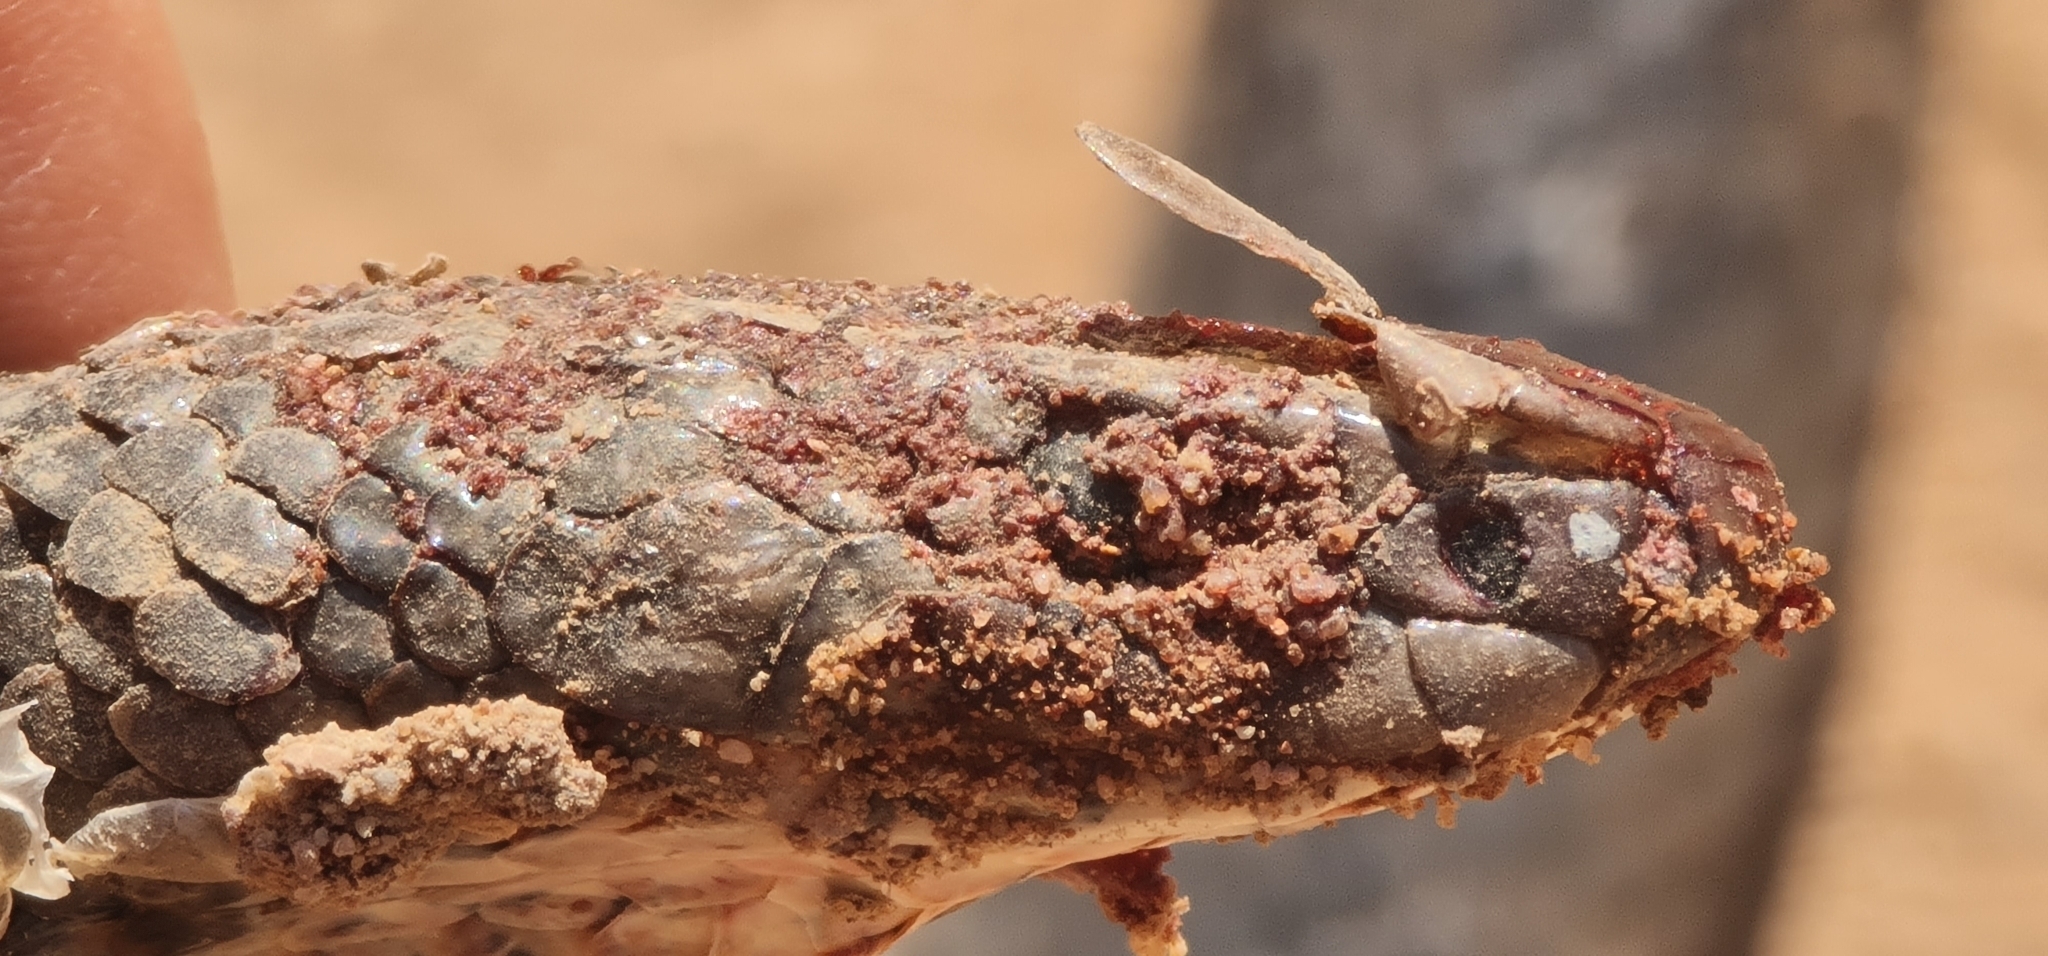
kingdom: Animalia
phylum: Chordata
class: Squamata
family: Elapidae
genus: Pseudonaja
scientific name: Pseudonaja textilis
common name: Eastern brown snake
